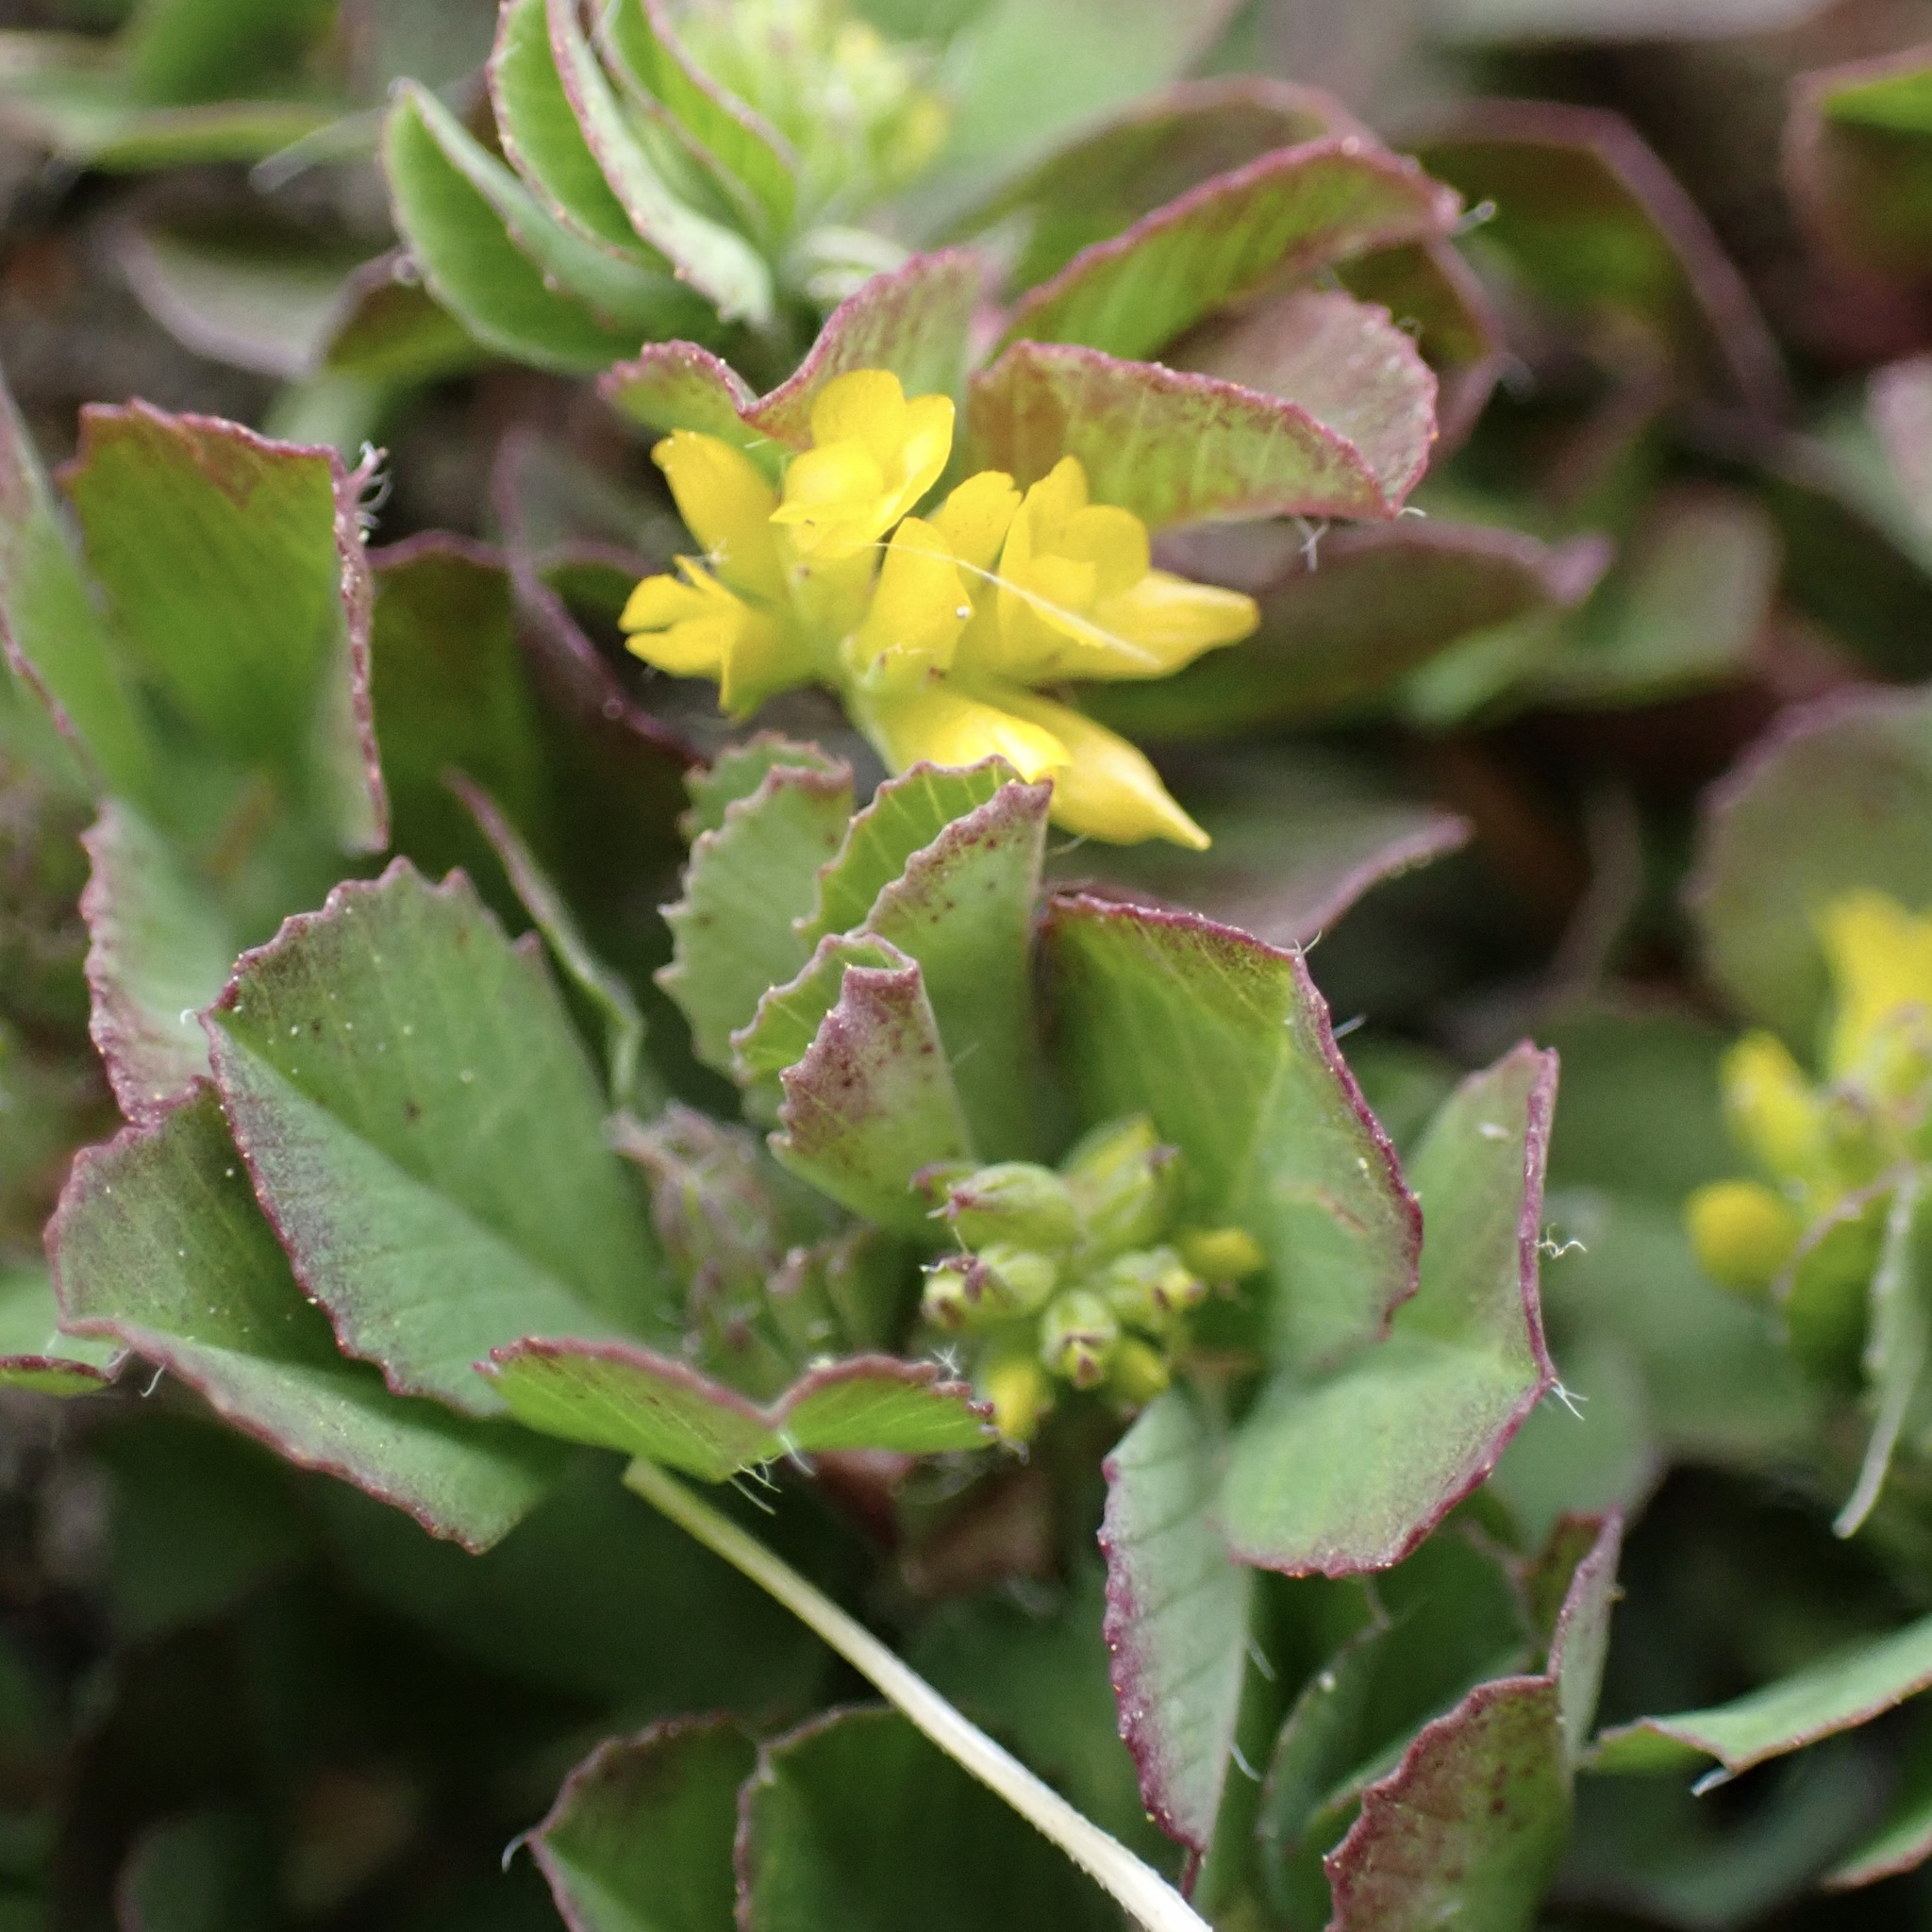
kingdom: Plantae
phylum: Tracheophyta
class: Magnoliopsida
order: Fabales
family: Fabaceae
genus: Trifolium
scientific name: Trifolium dubium
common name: Suckling clover
